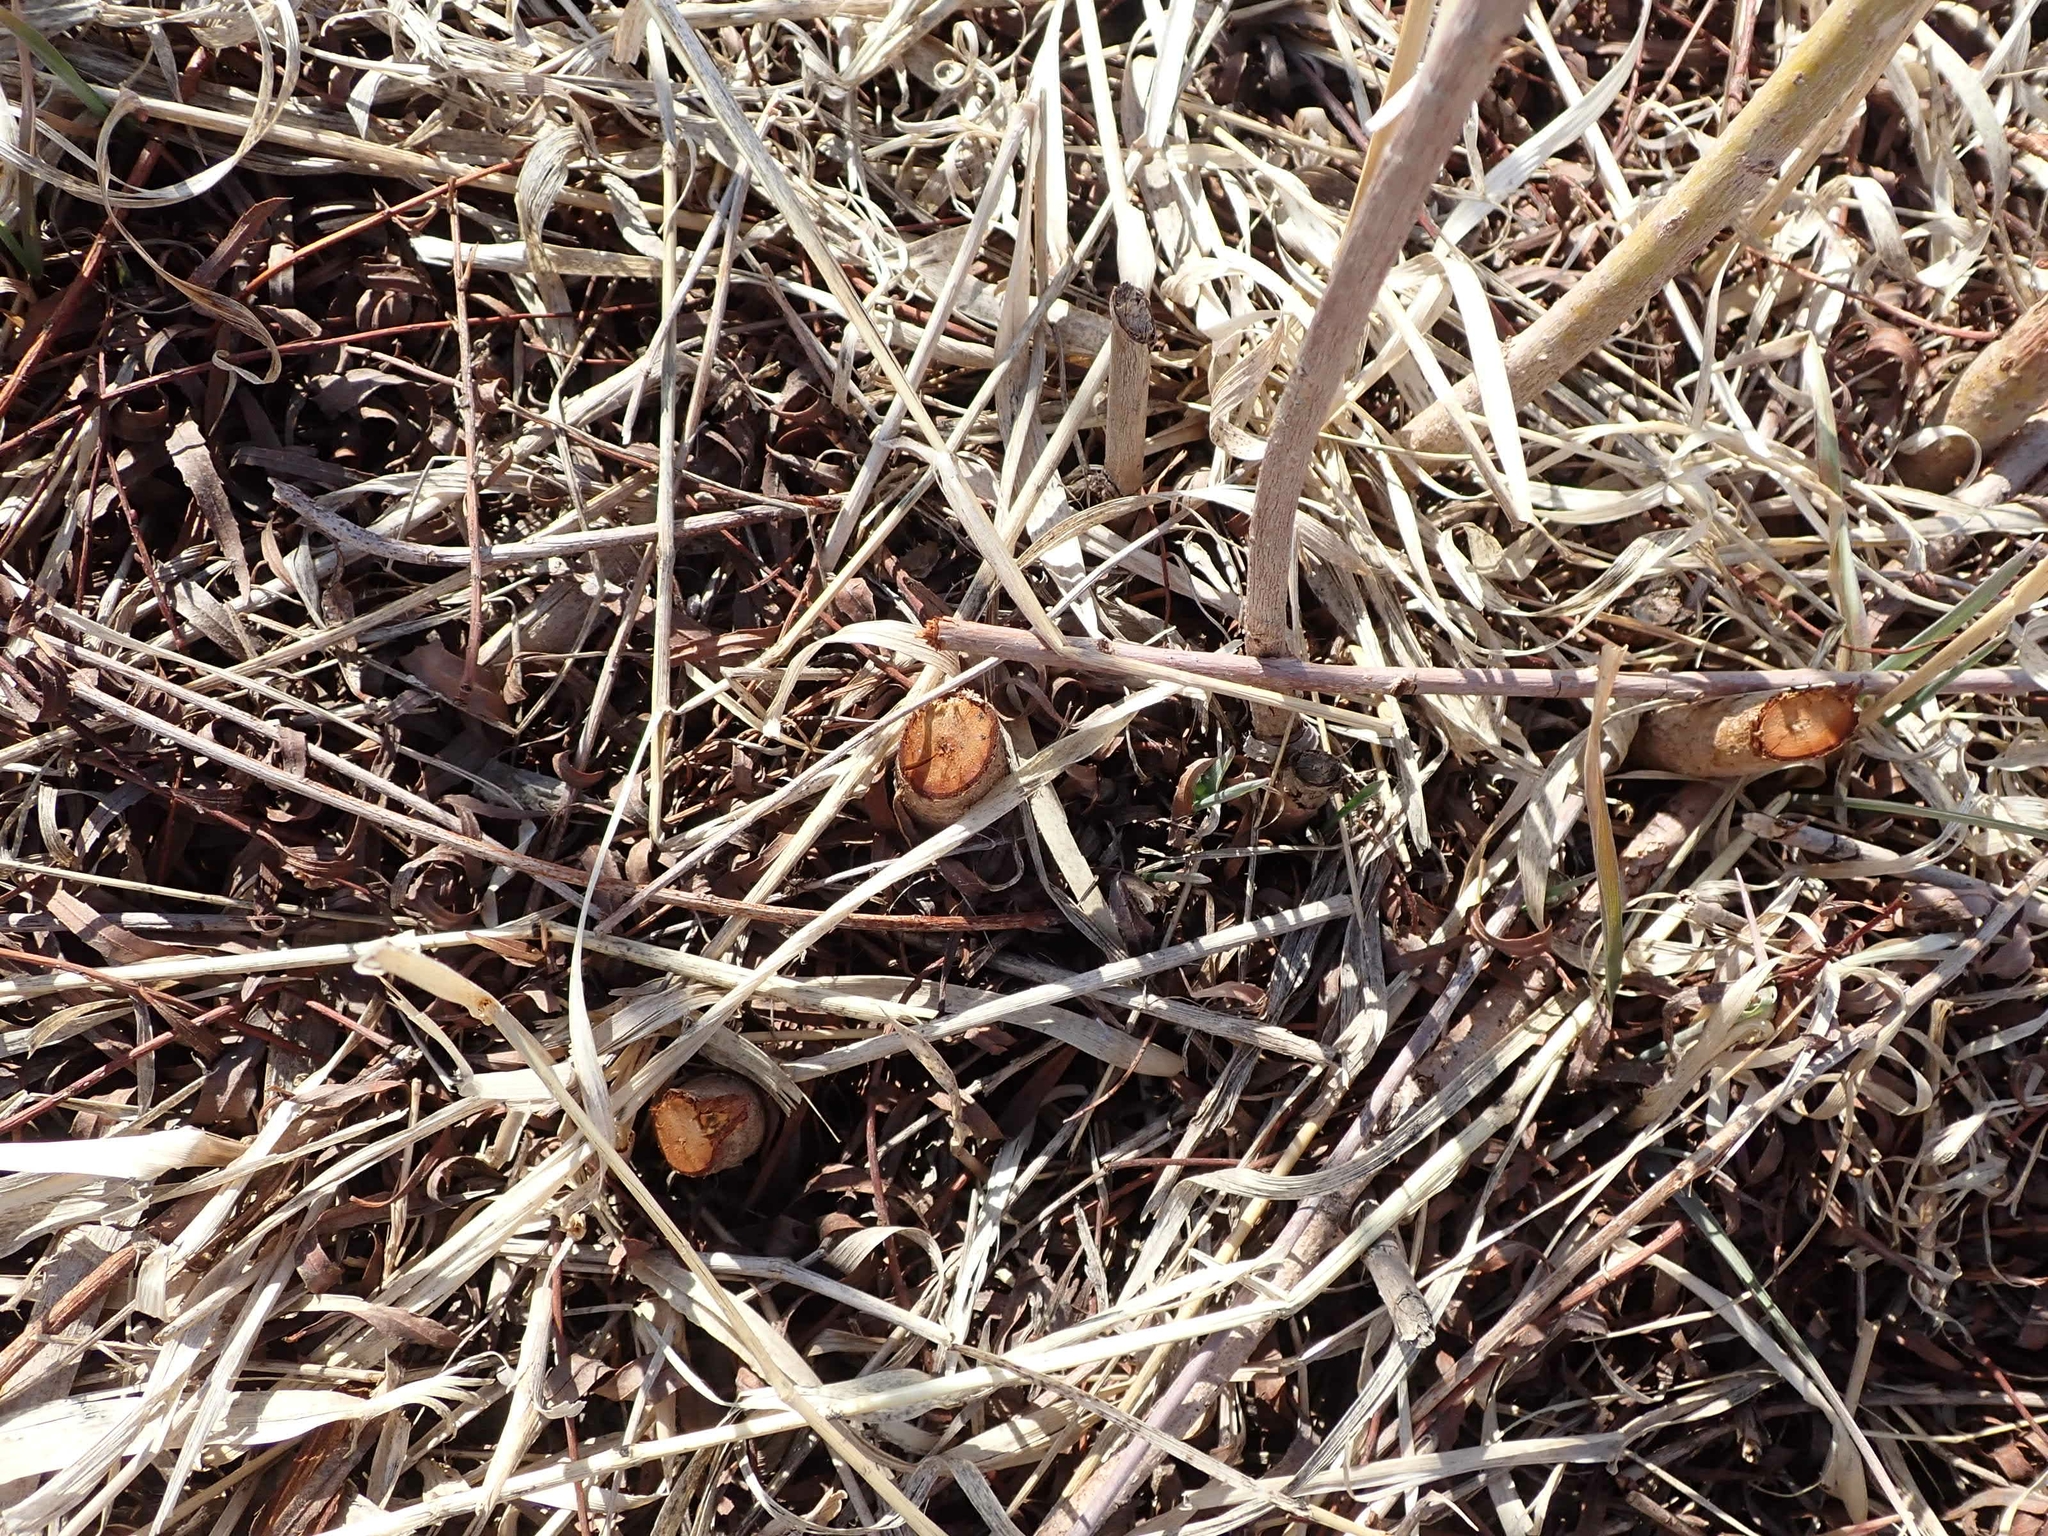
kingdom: Animalia
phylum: Chordata
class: Mammalia
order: Rodentia
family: Castoridae
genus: Castor
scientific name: Castor canadensis
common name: American beaver
